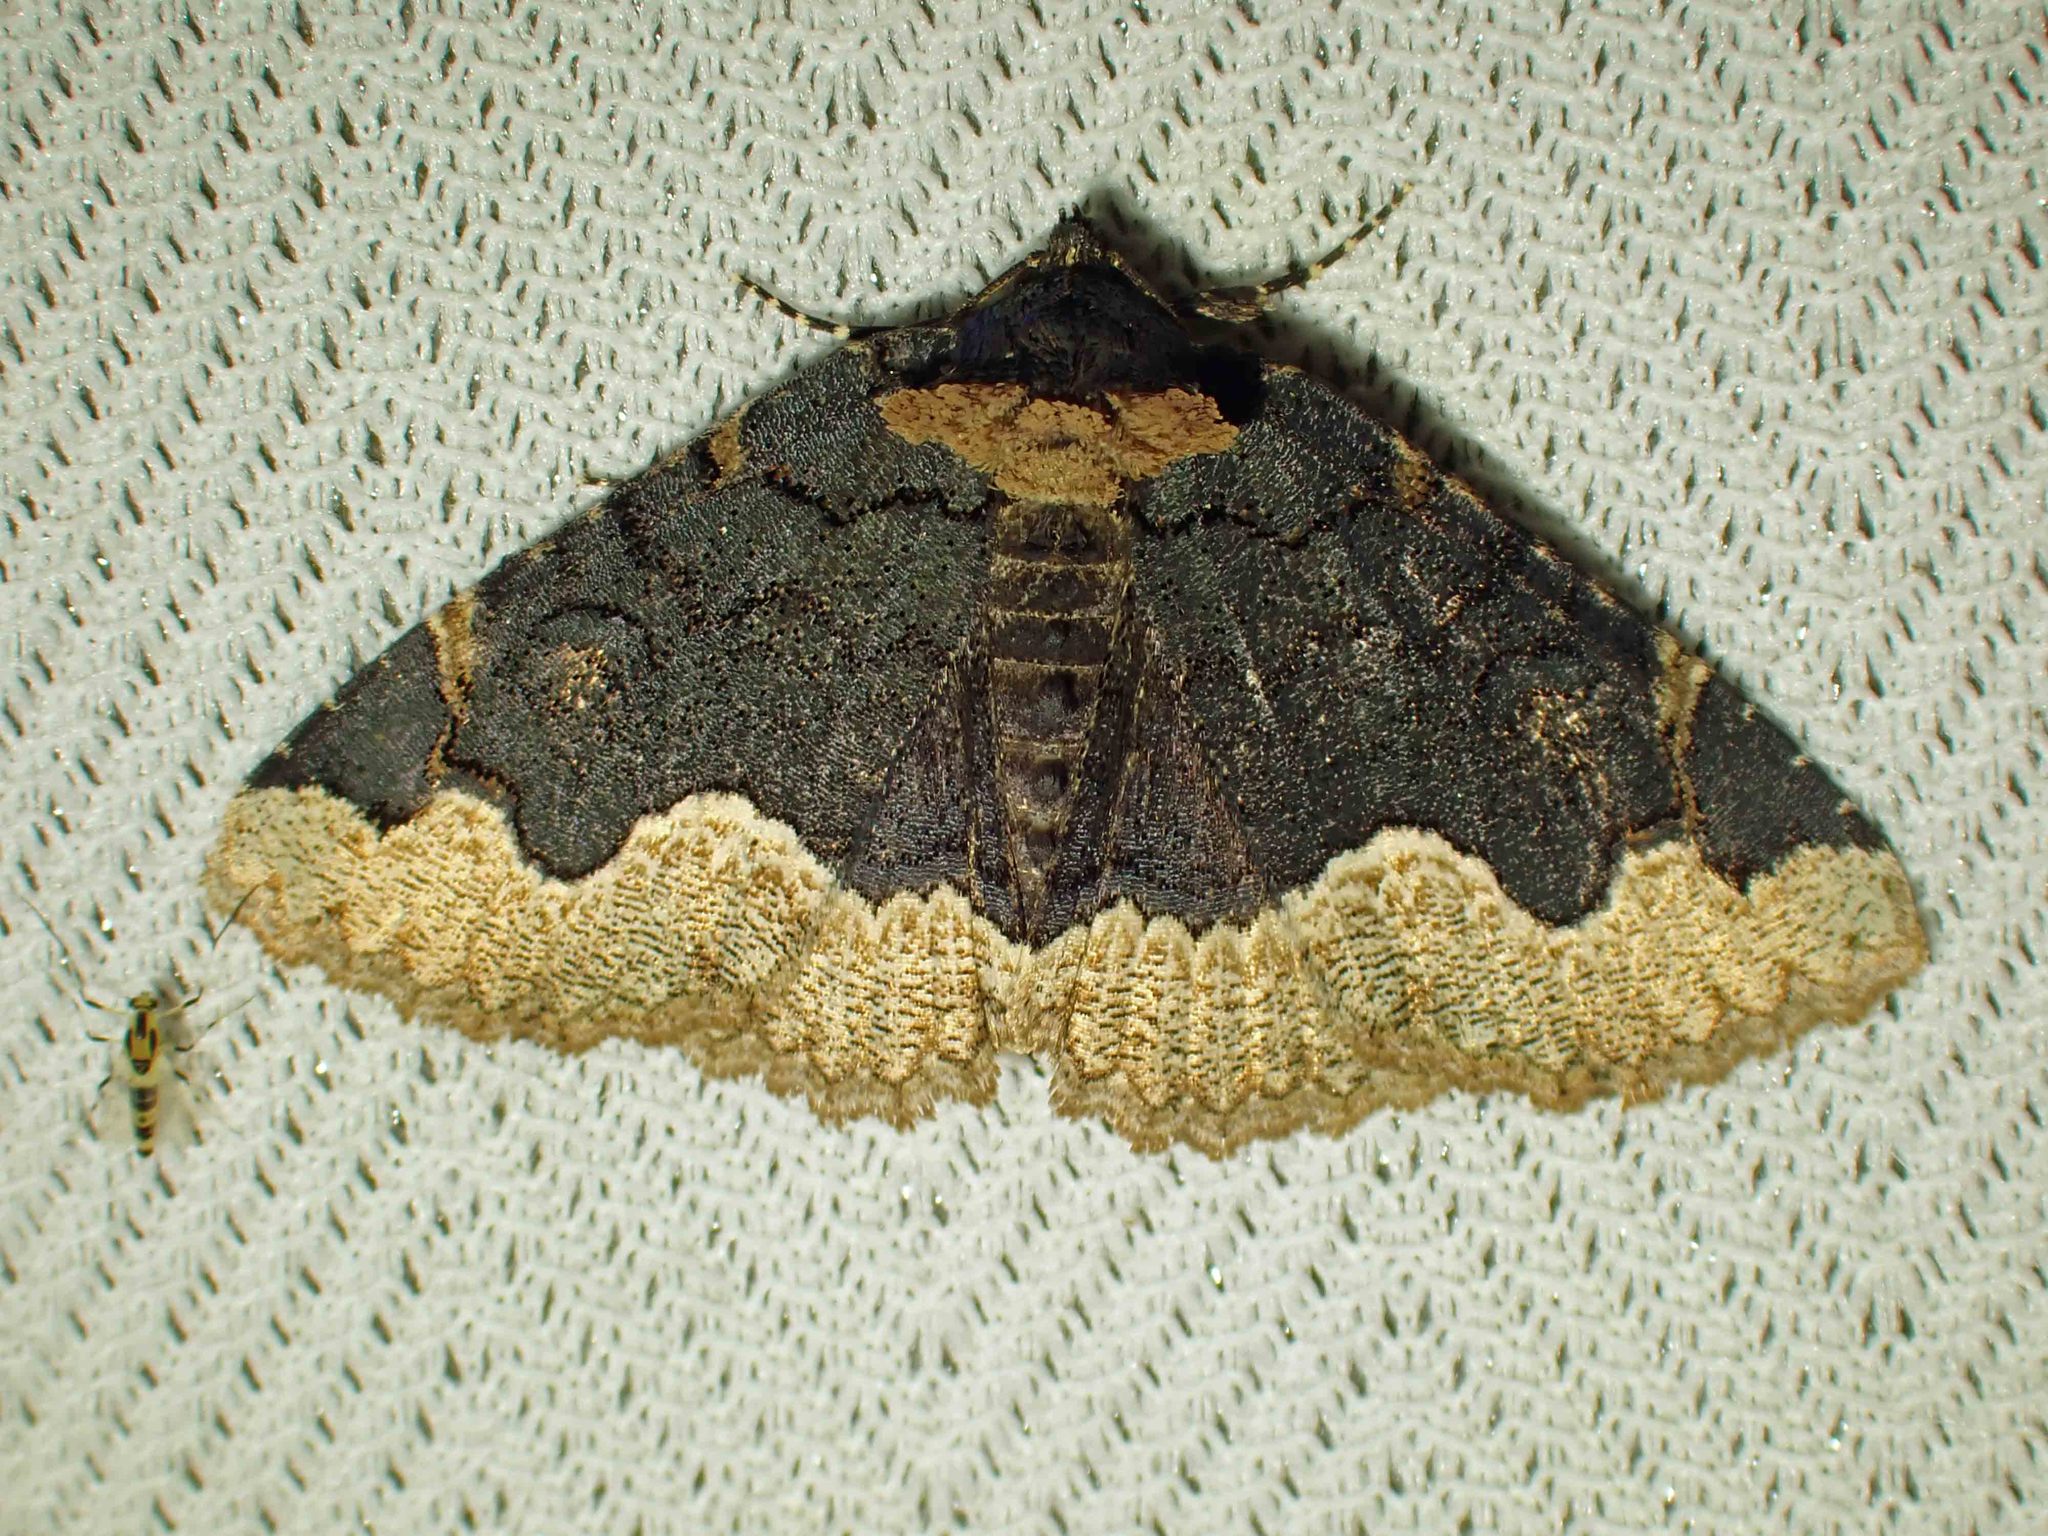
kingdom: Animalia
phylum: Arthropoda
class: Insecta
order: Lepidoptera
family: Erebidae
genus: Zale
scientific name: Zale horrida
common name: Horrid zale moth
